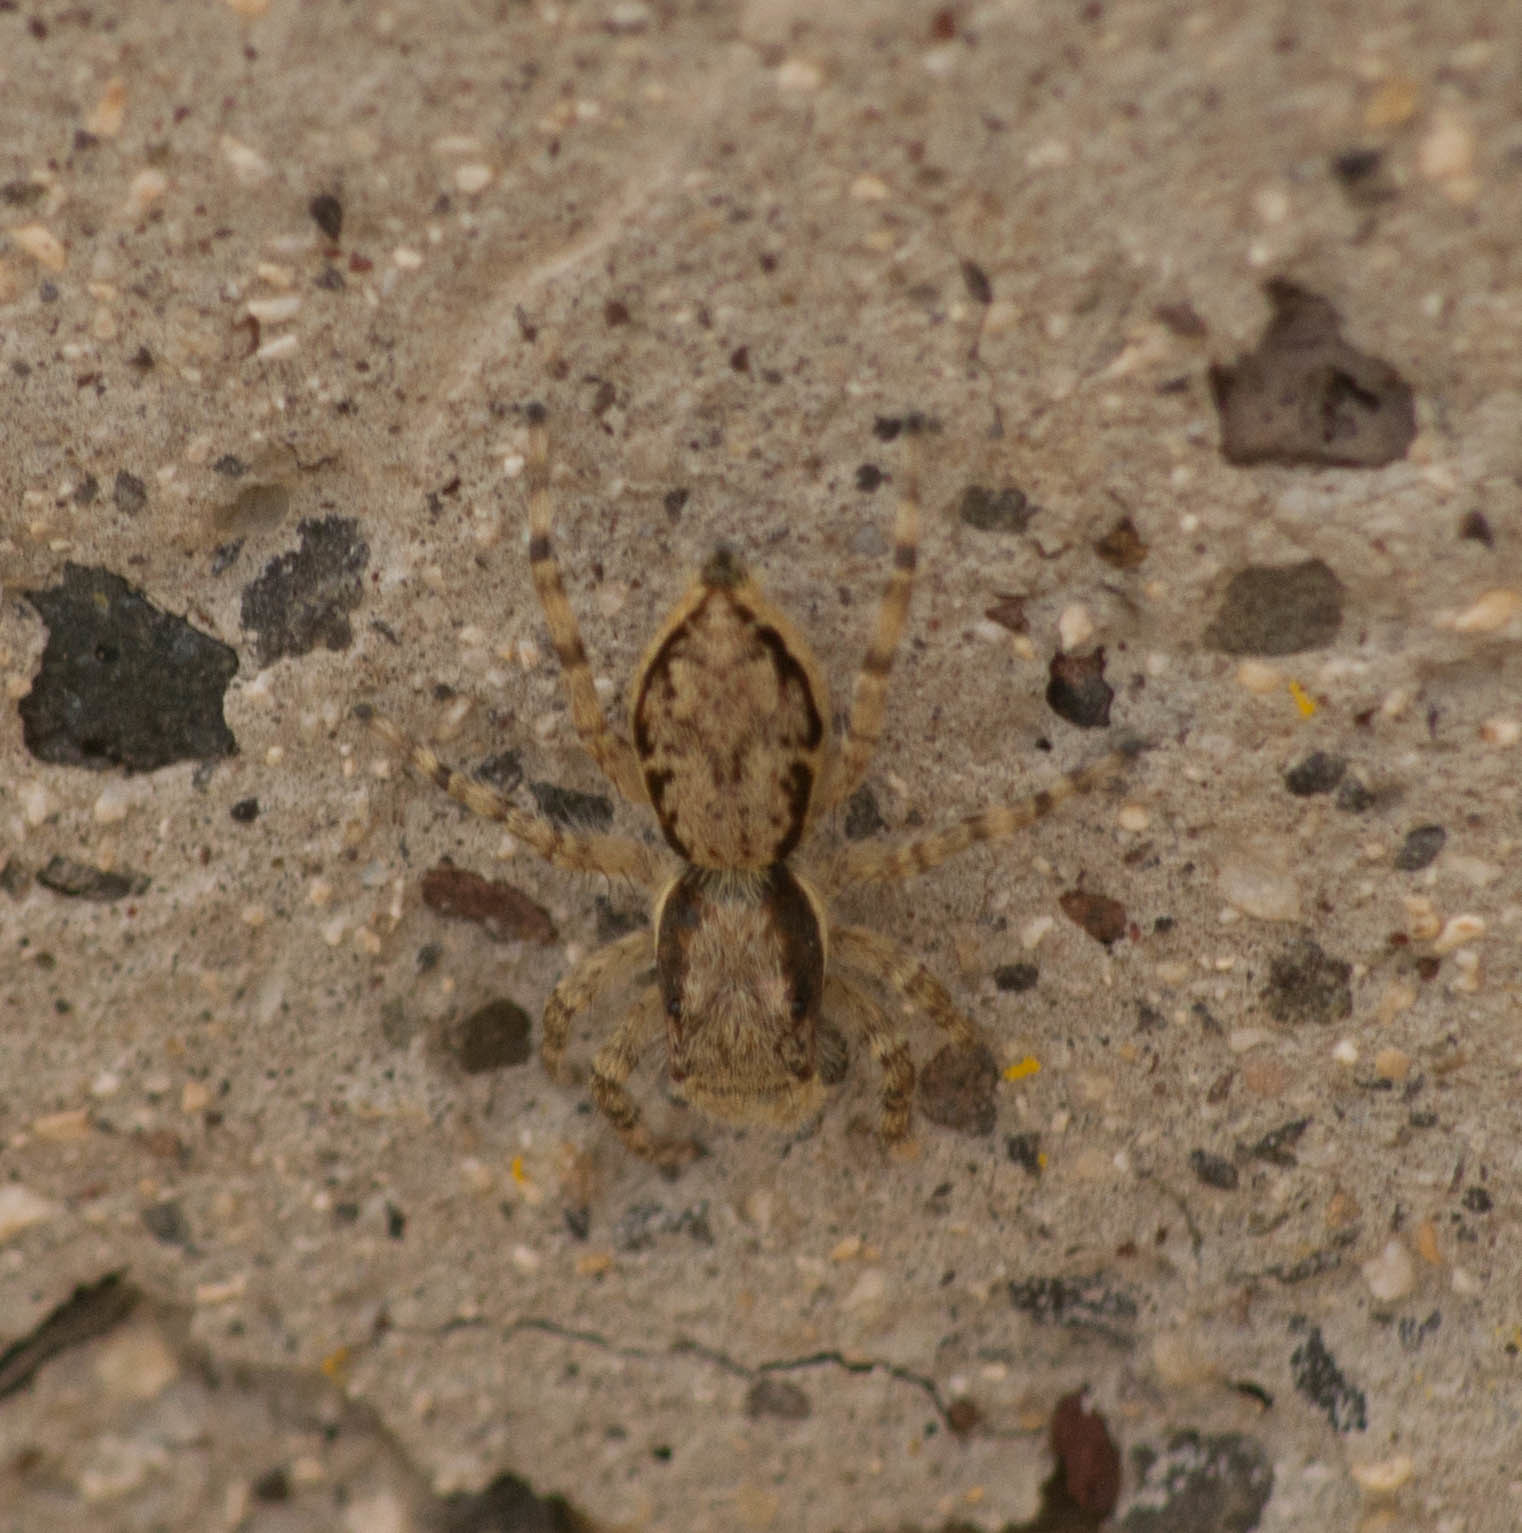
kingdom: Animalia
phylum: Arthropoda
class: Arachnida
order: Araneae
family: Salticidae
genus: Menemerus
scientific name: Menemerus bivittatus
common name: Gray wall jumper
